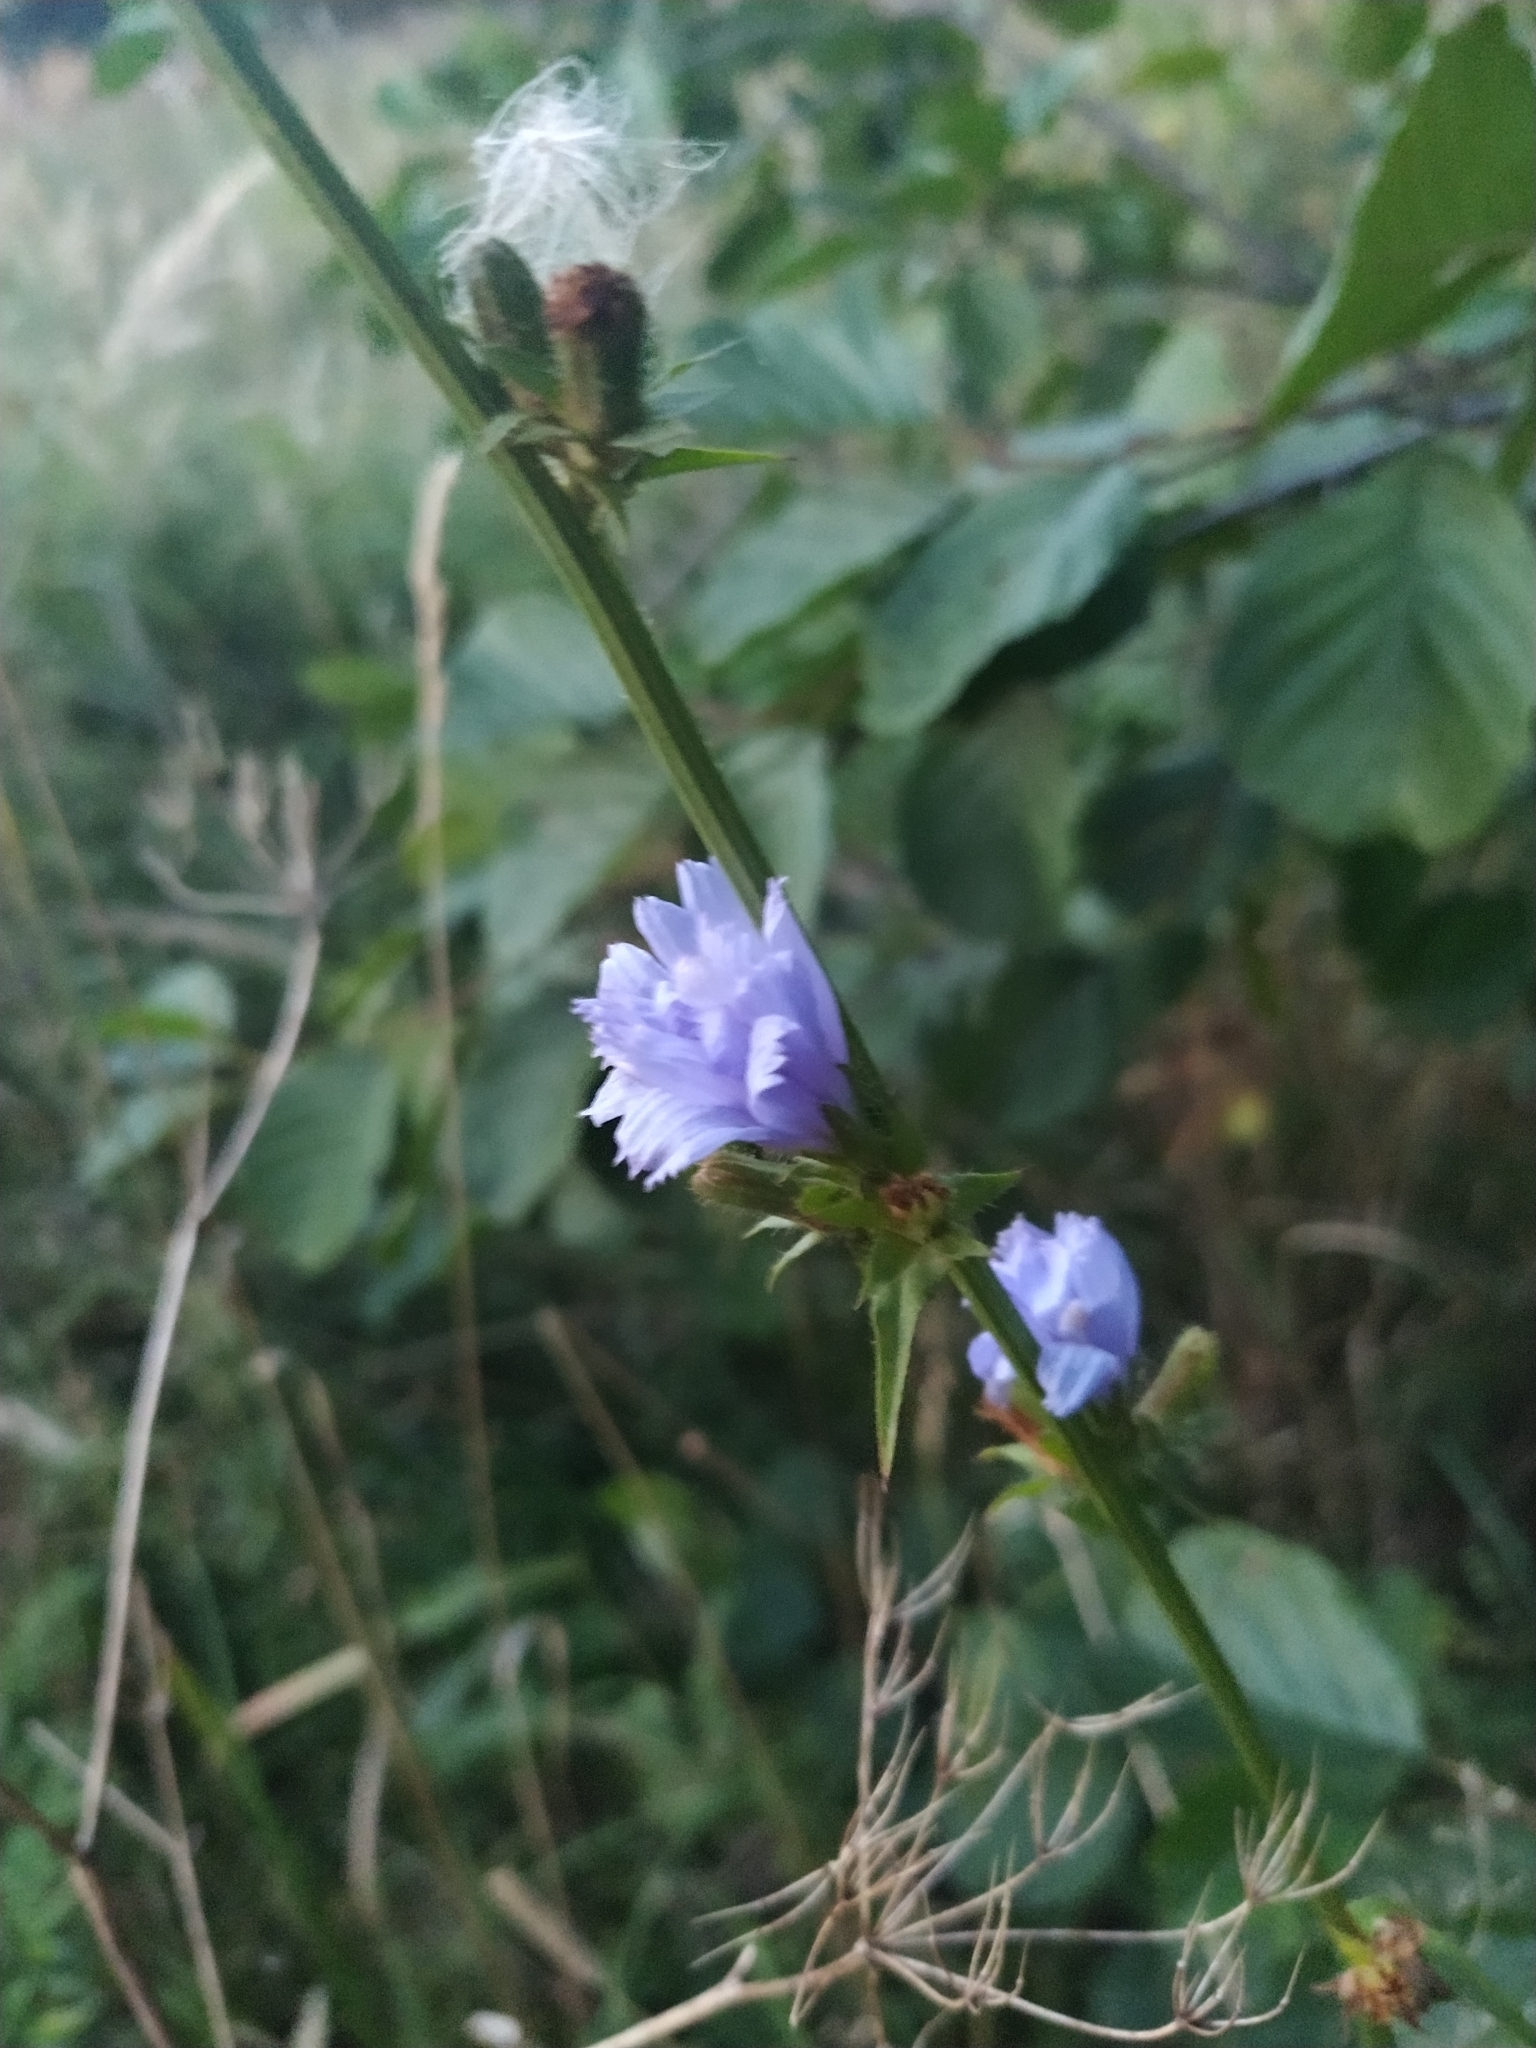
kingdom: Plantae
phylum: Tracheophyta
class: Magnoliopsida
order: Asterales
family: Asteraceae
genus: Cichorium
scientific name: Cichorium intybus
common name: Chicory
